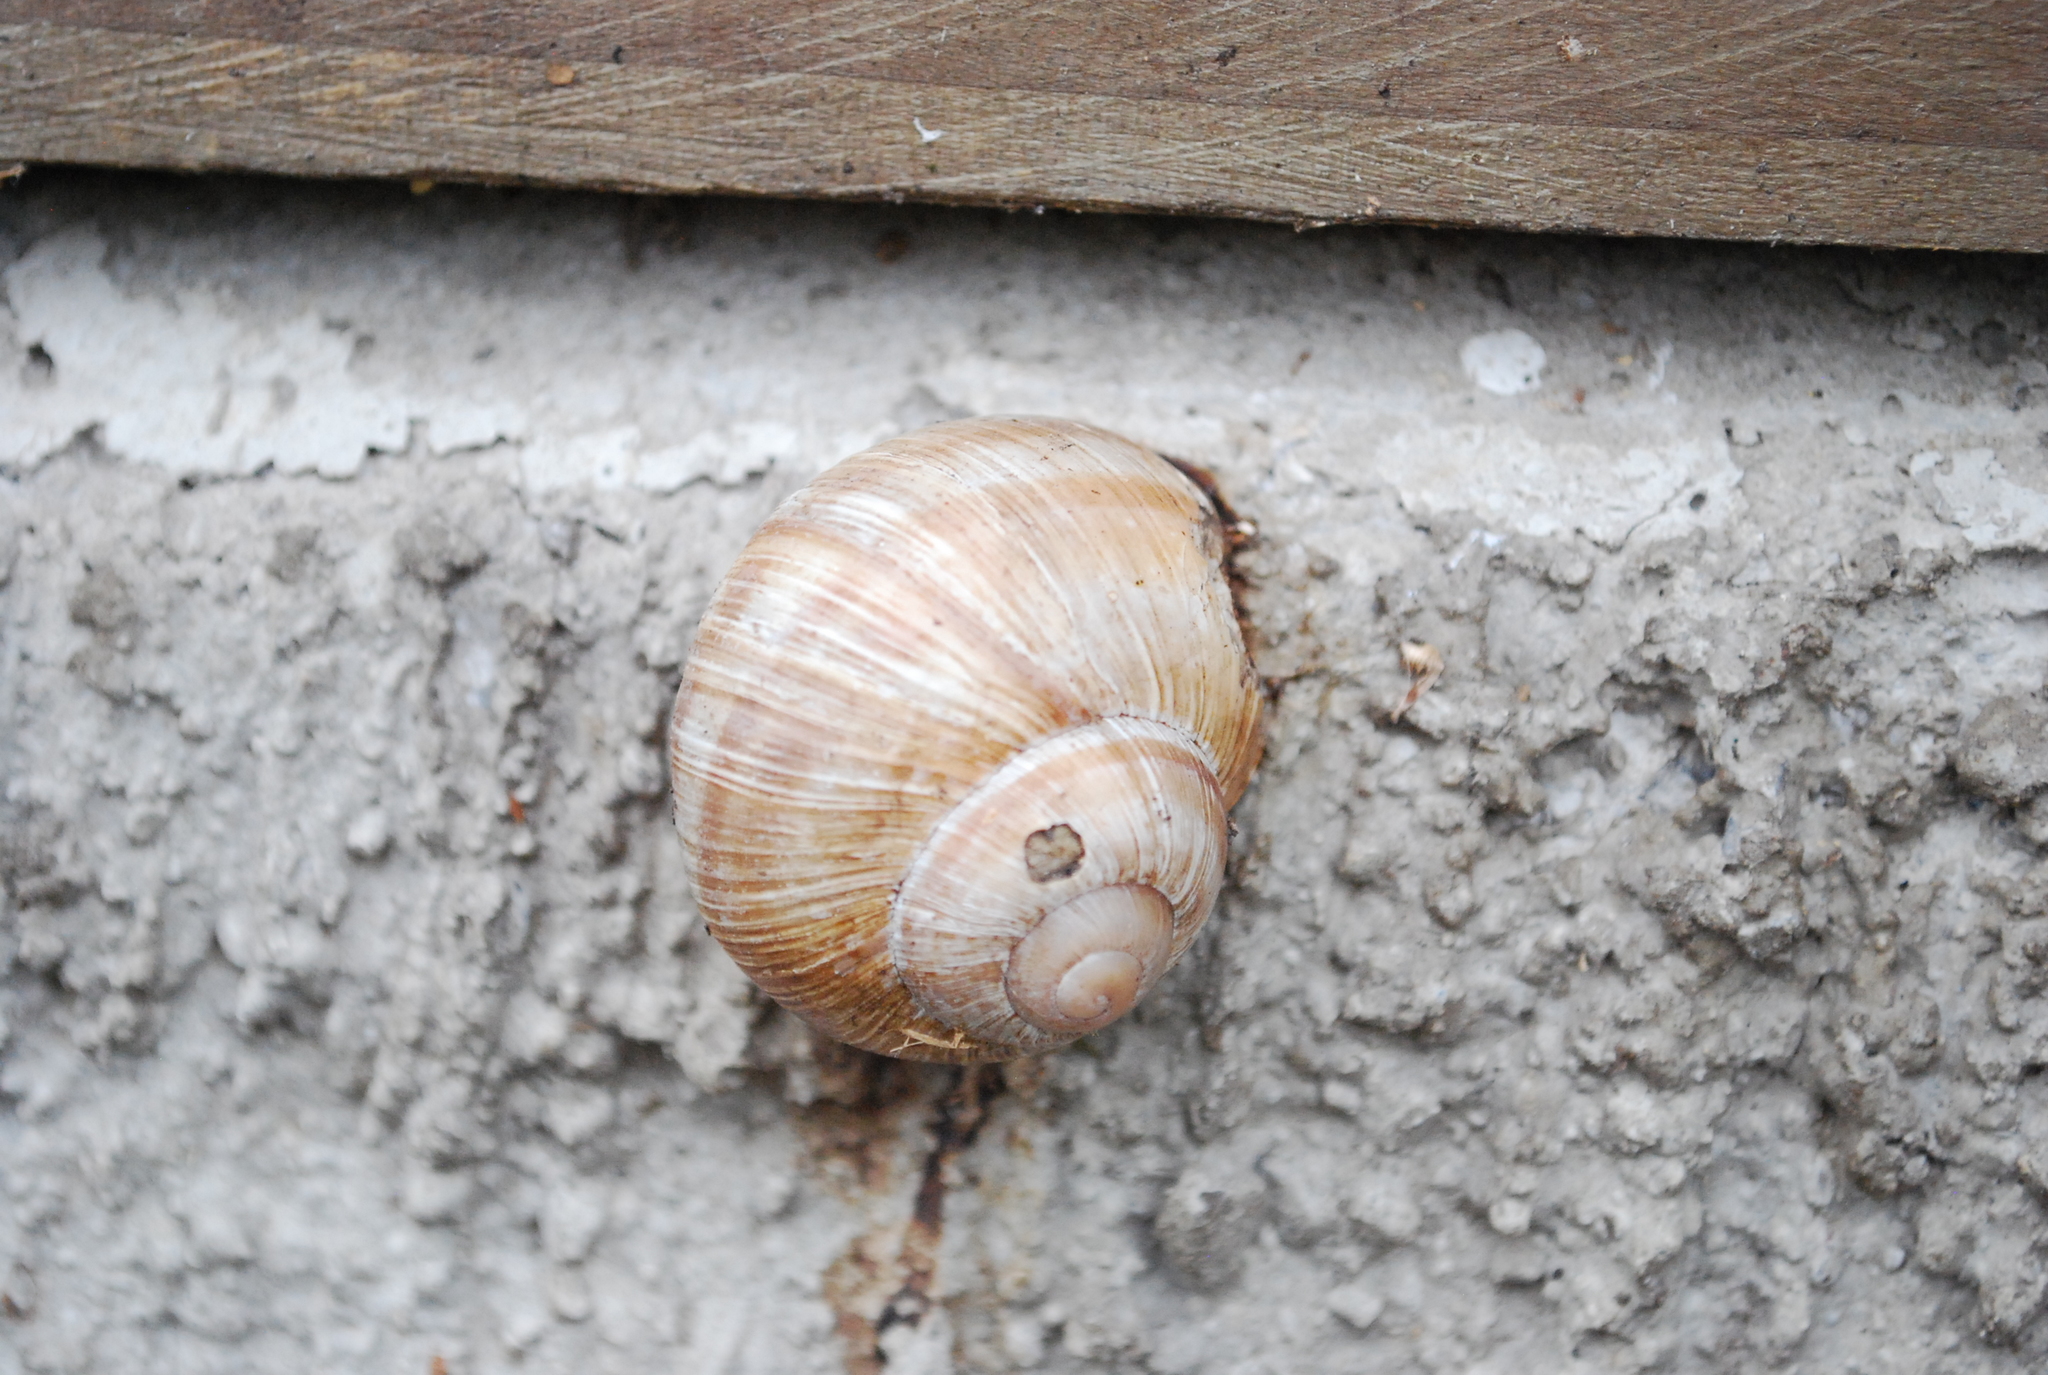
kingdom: Animalia
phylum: Mollusca
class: Gastropoda
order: Stylommatophora
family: Helicidae
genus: Helix
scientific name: Helix pomatia
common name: Roman snail
